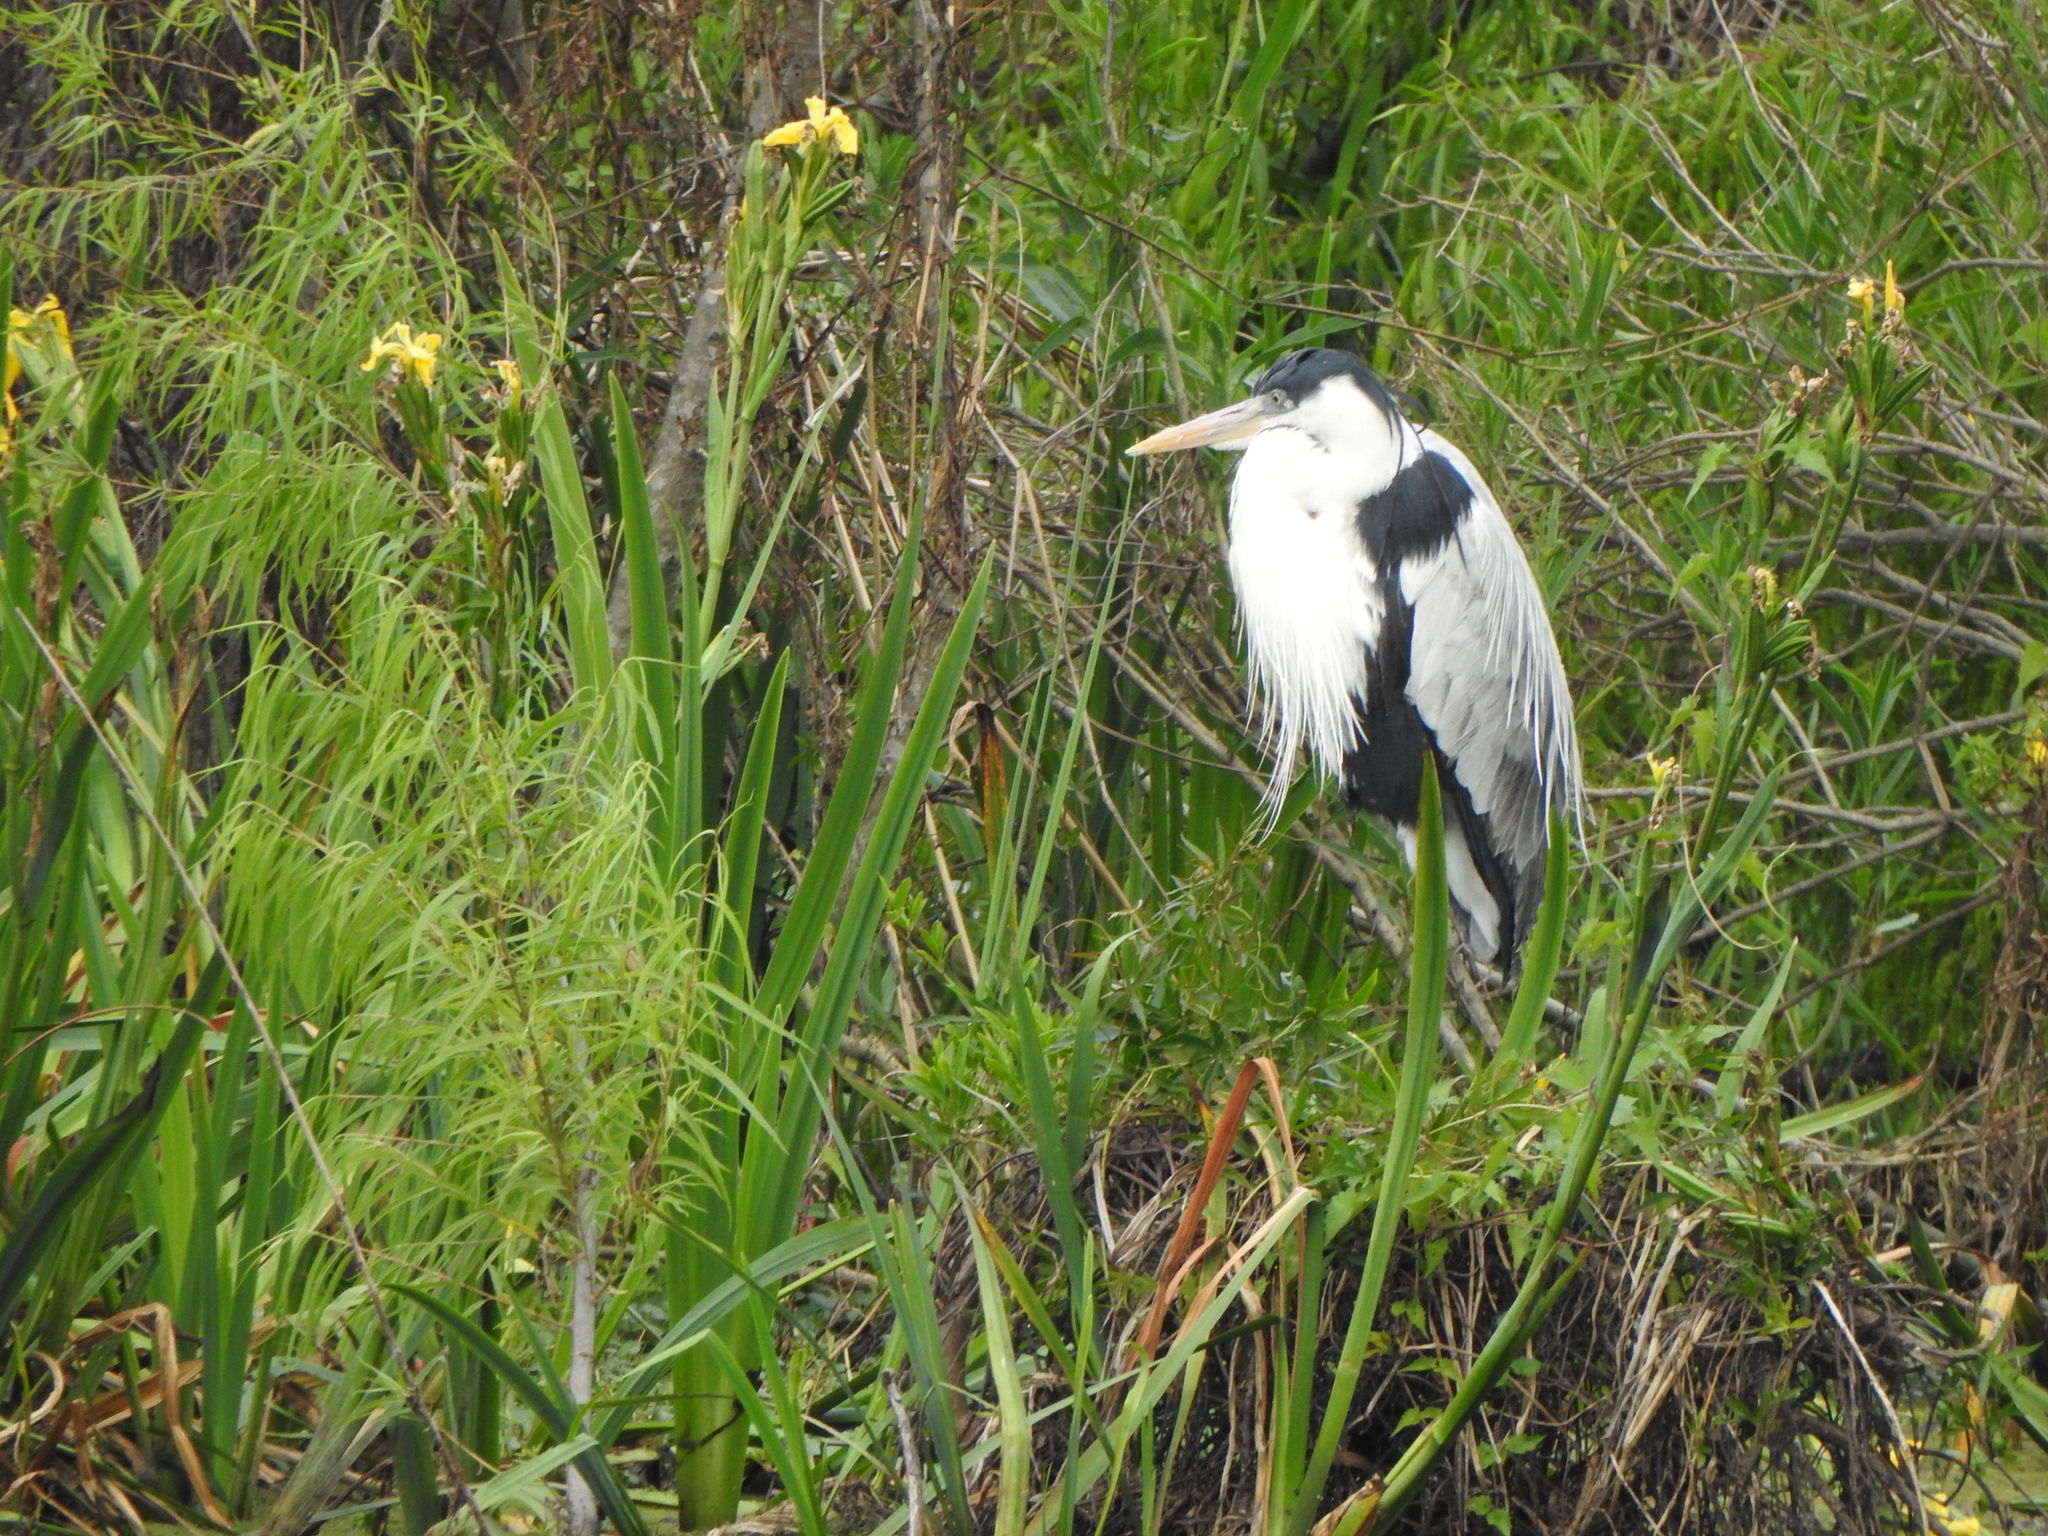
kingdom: Animalia
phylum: Chordata
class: Aves
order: Pelecaniformes
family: Ardeidae
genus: Ardea
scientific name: Ardea cocoi
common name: Cocoi heron
